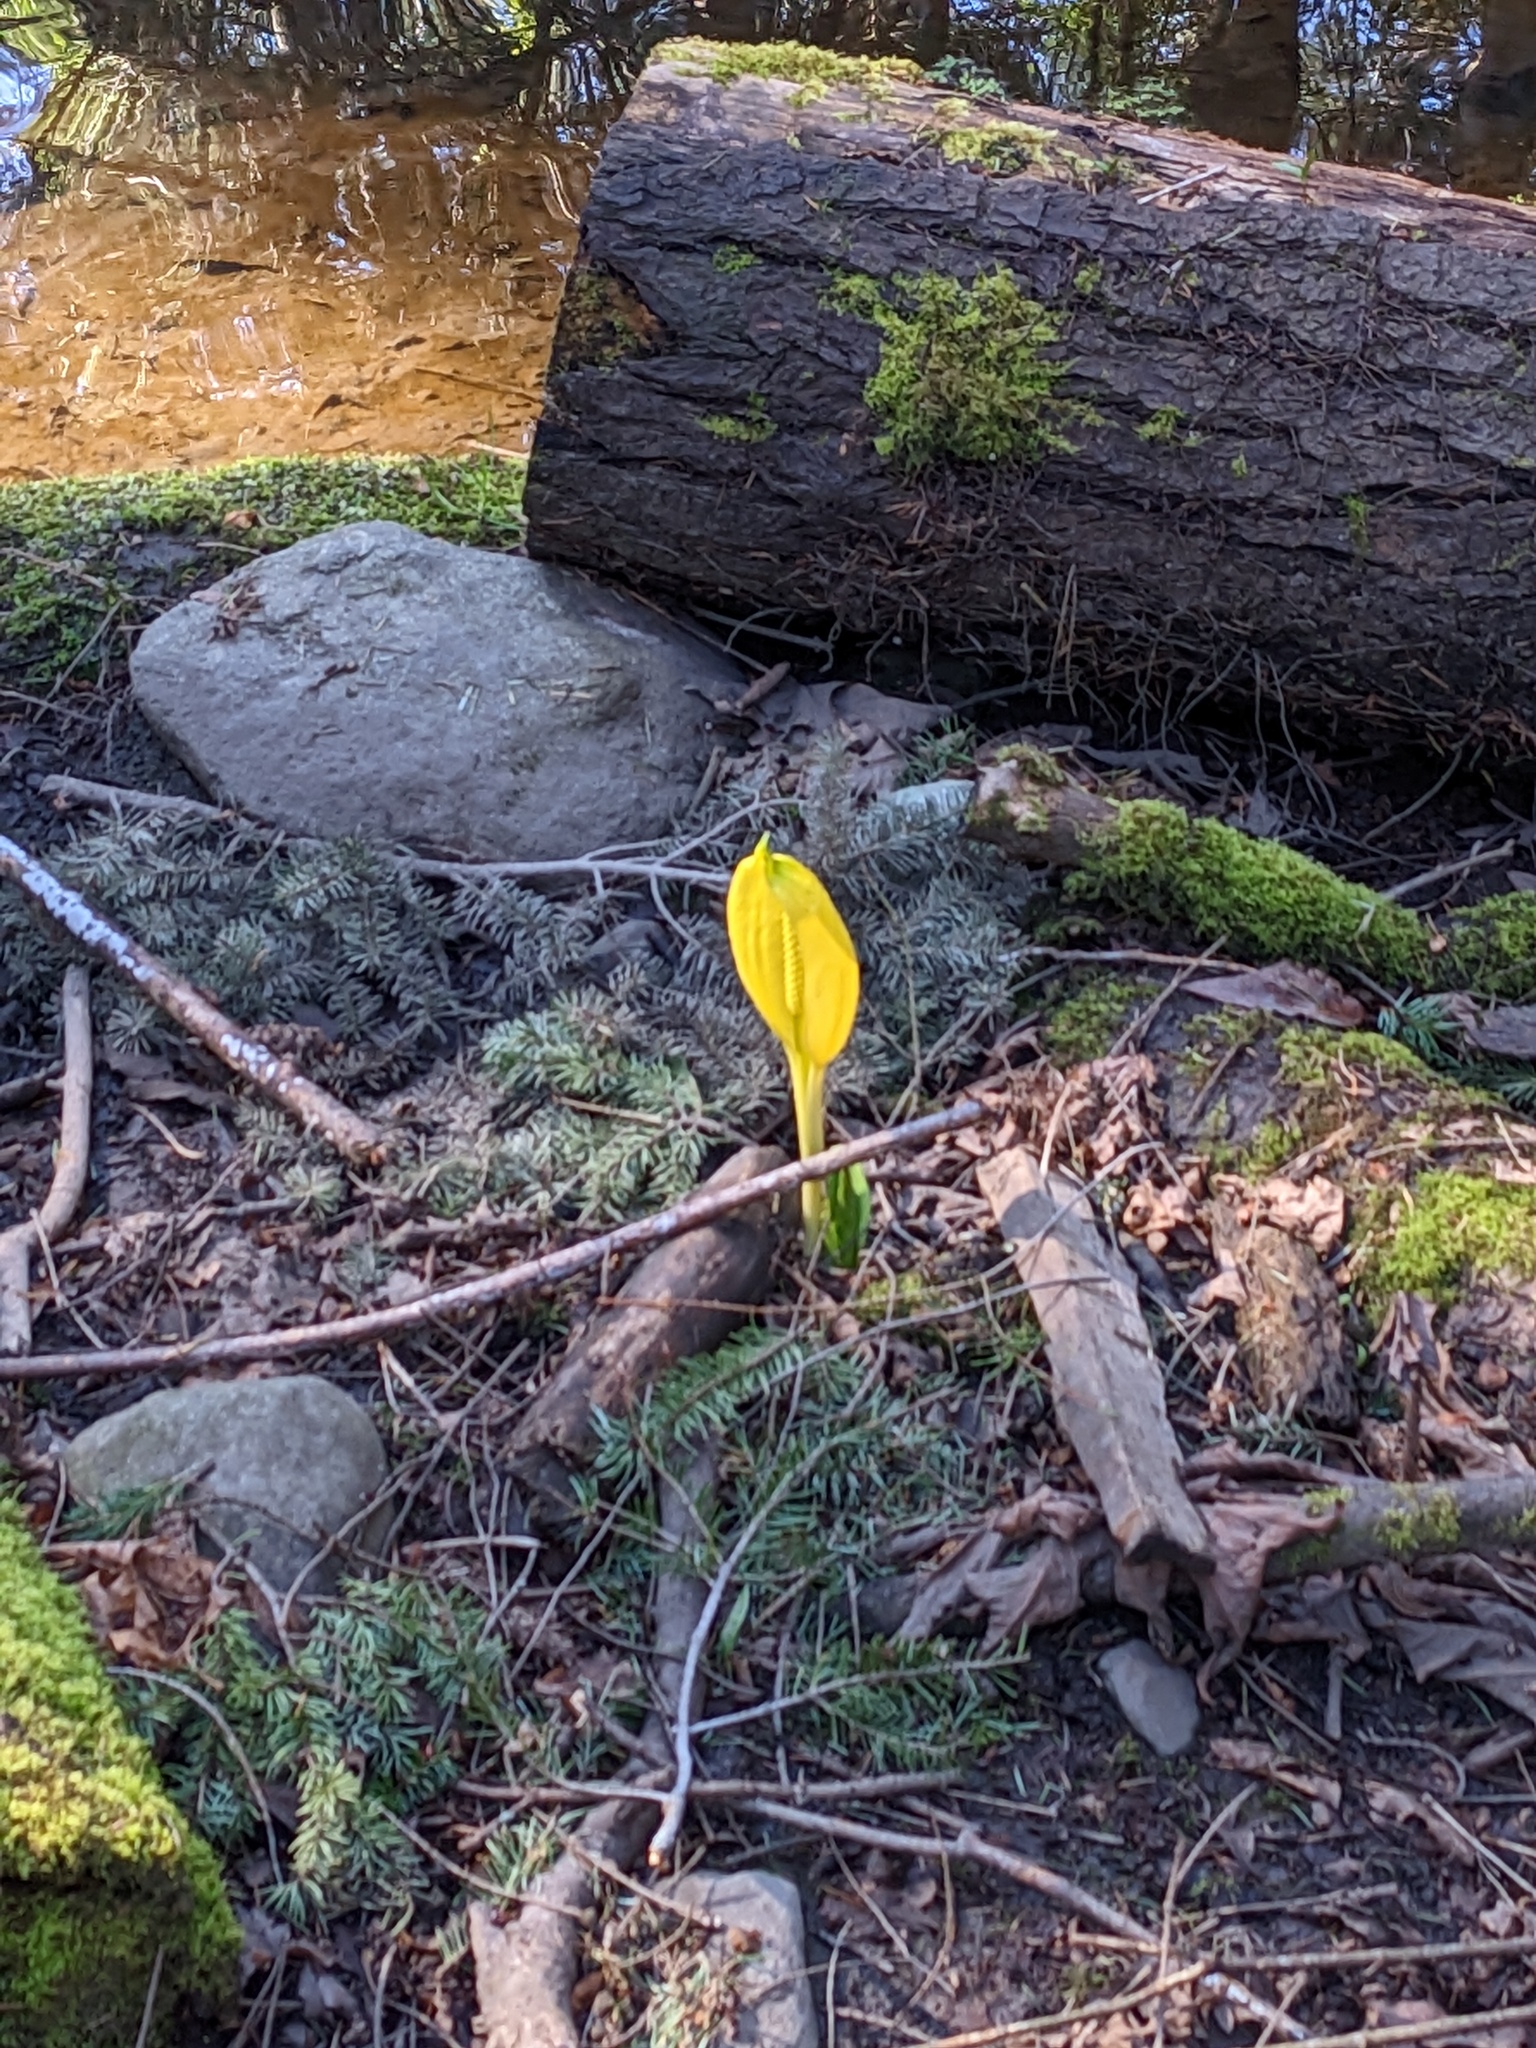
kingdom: Plantae
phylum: Tracheophyta
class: Liliopsida
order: Alismatales
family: Araceae
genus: Lysichiton
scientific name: Lysichiton americanus
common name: American skunk cabbage
